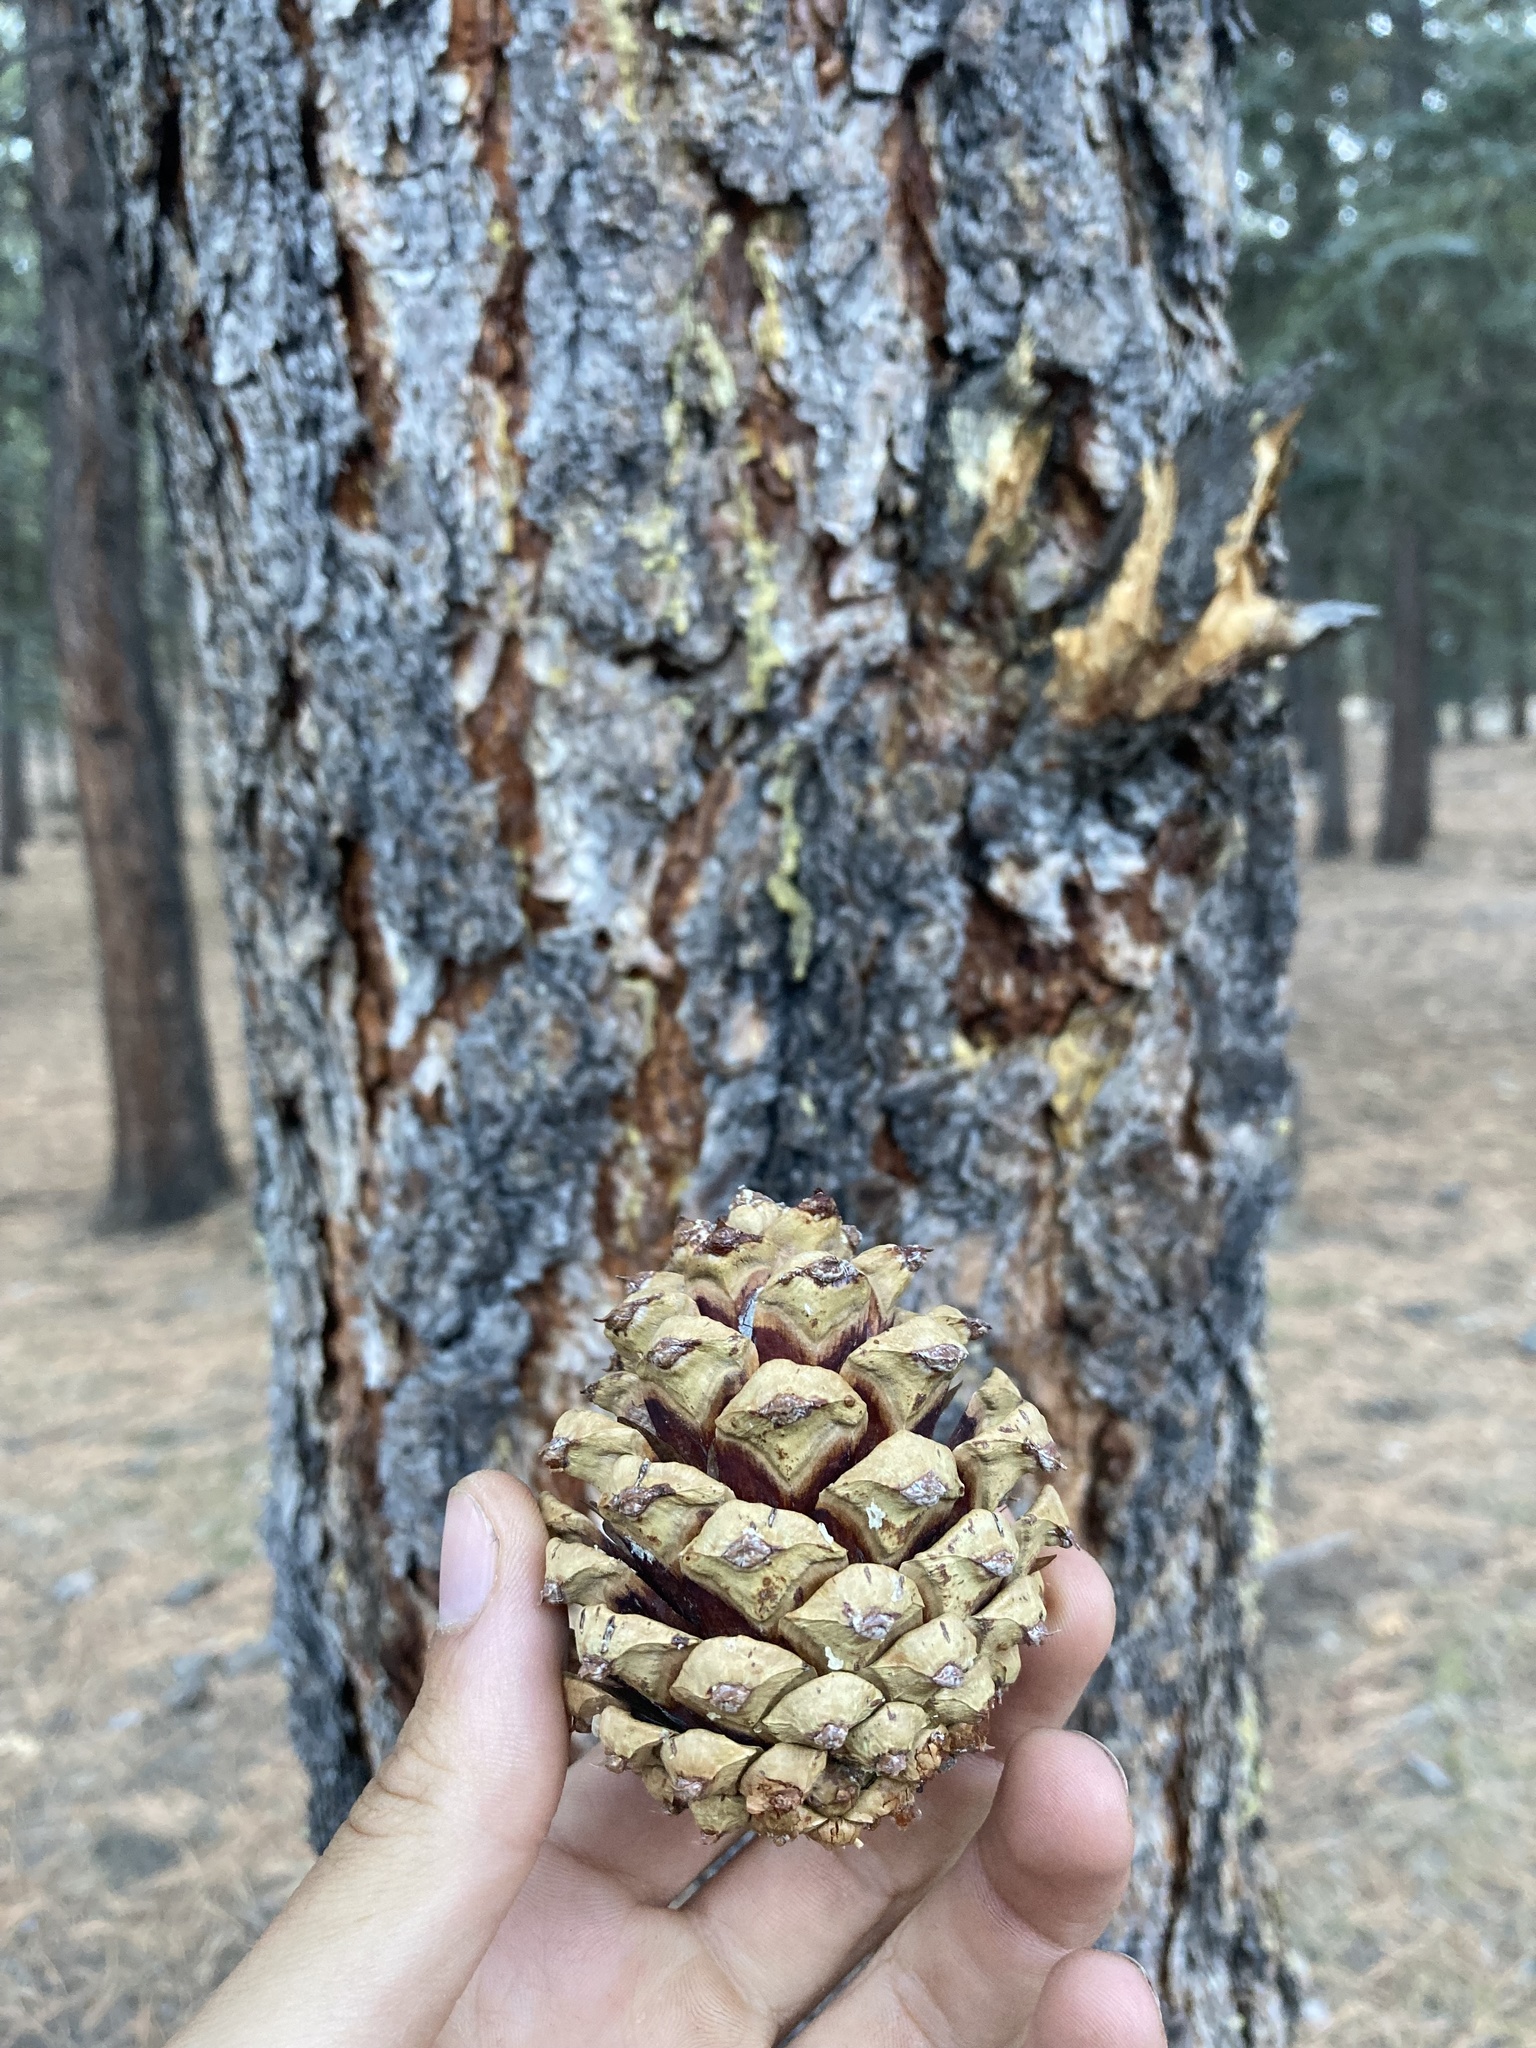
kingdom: Plantae
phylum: Tracheophyta
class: Pinopsida
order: Pinales
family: Pinaceae
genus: Pinus
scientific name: Pinus ponderosa
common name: Western yellow-pine
